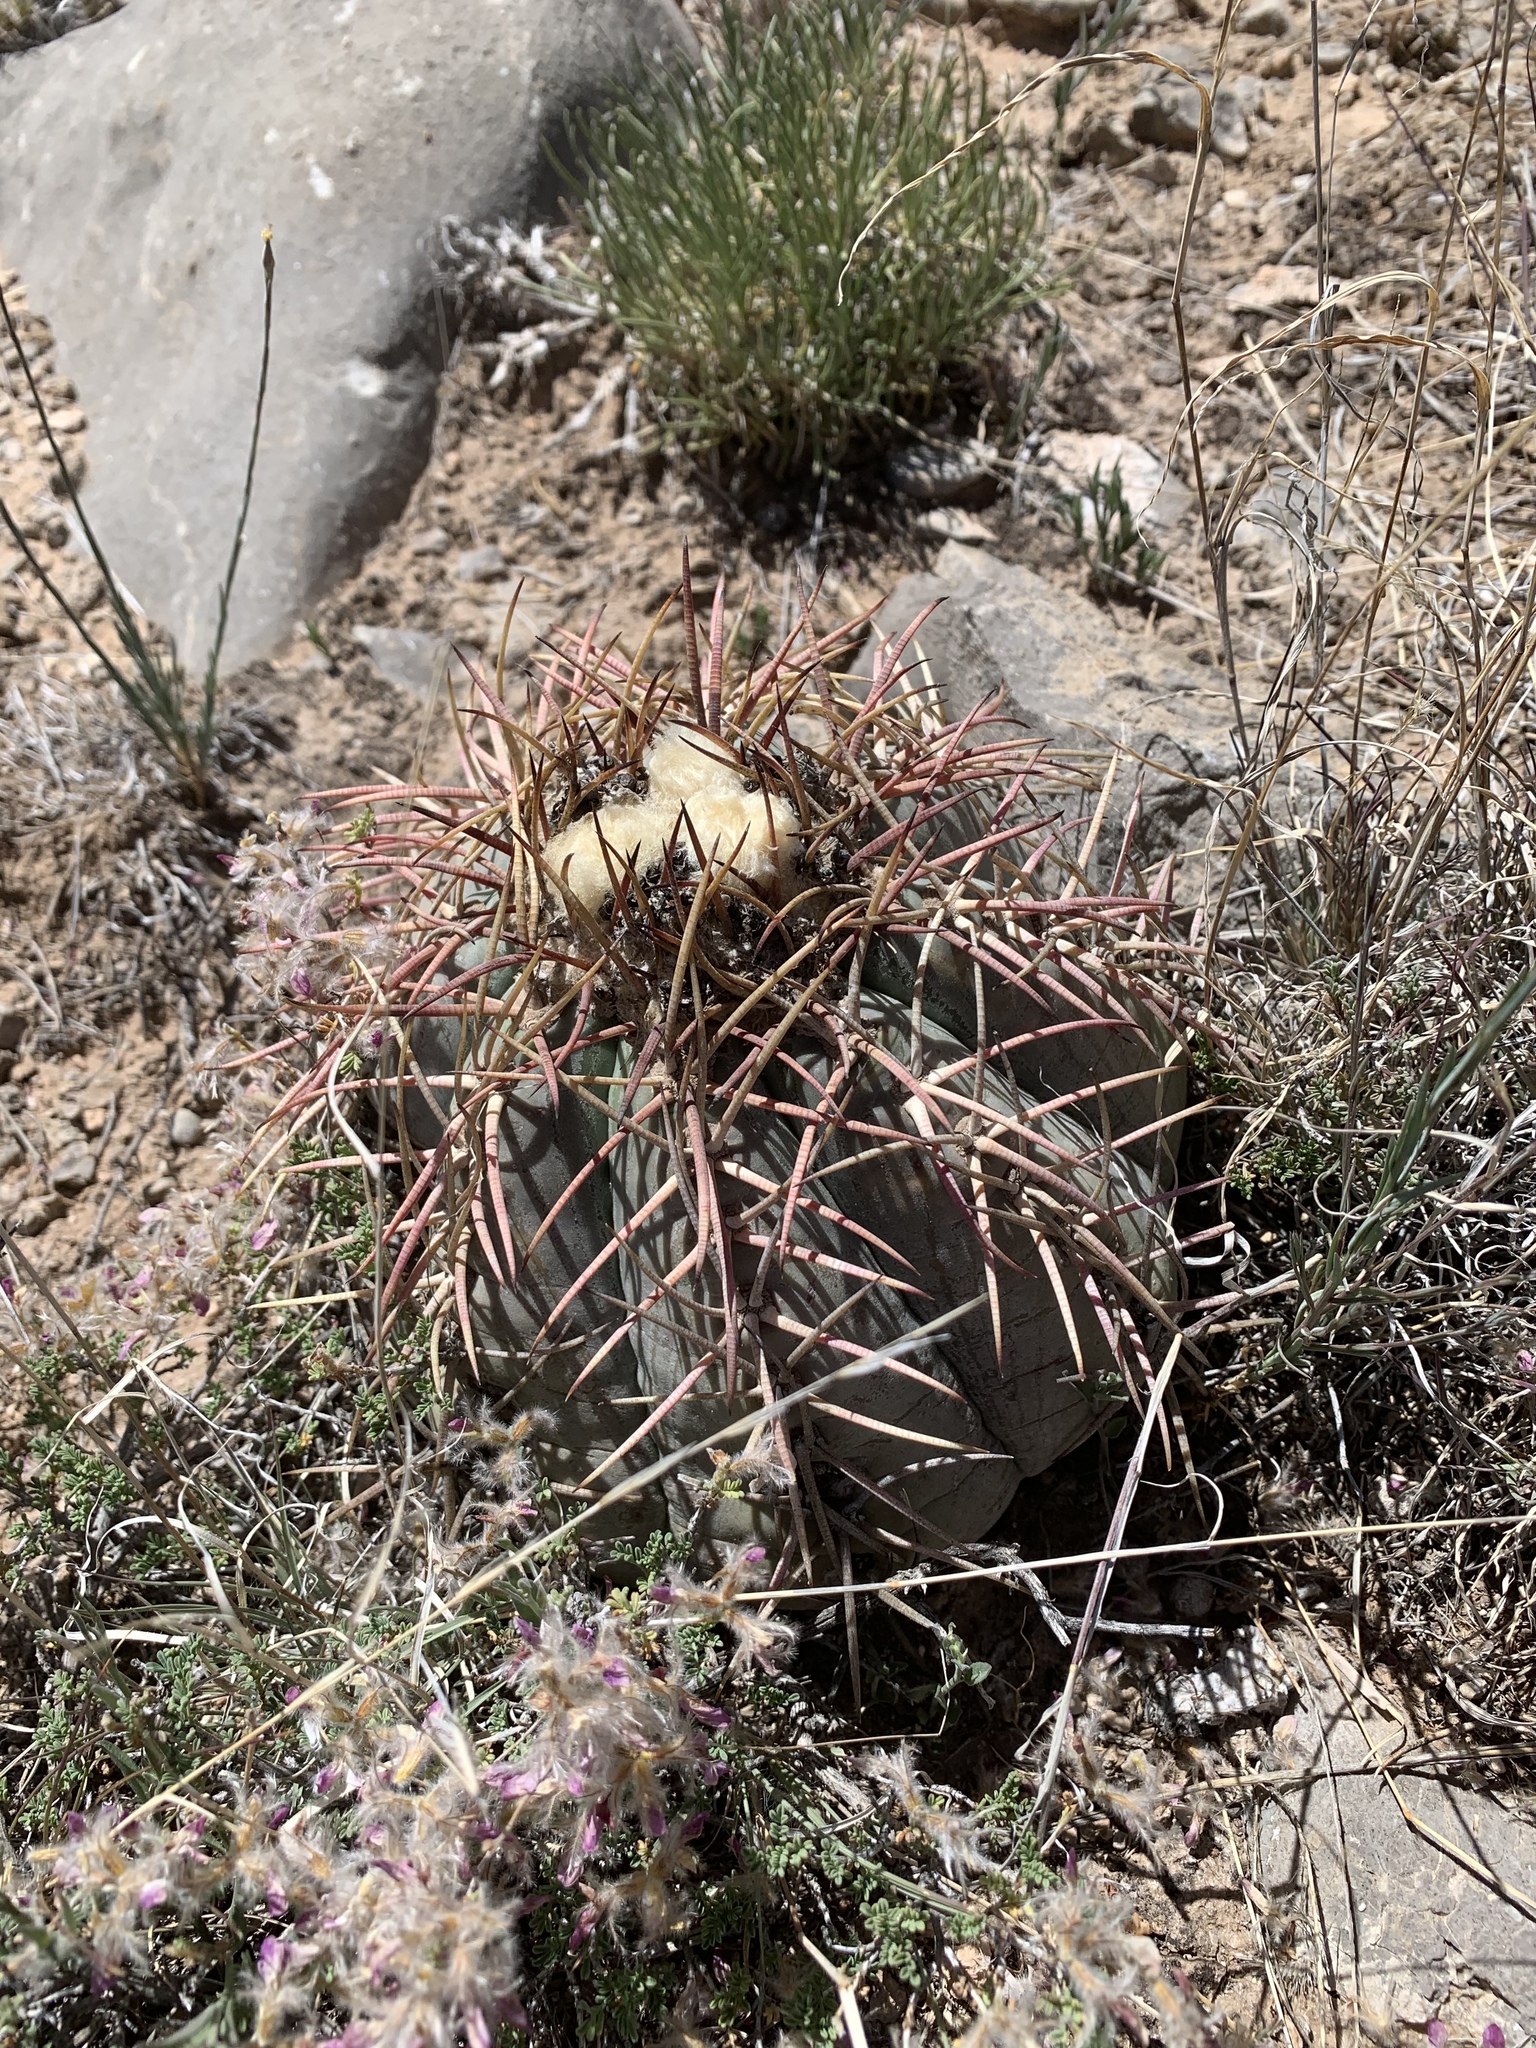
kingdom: Plantae
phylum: Tracheophyta
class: Magnoliopsida
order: Caryophyllales
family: Cactaceae
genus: Echinocactus
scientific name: Echinocactus horizonthalonius
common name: Devilshead
